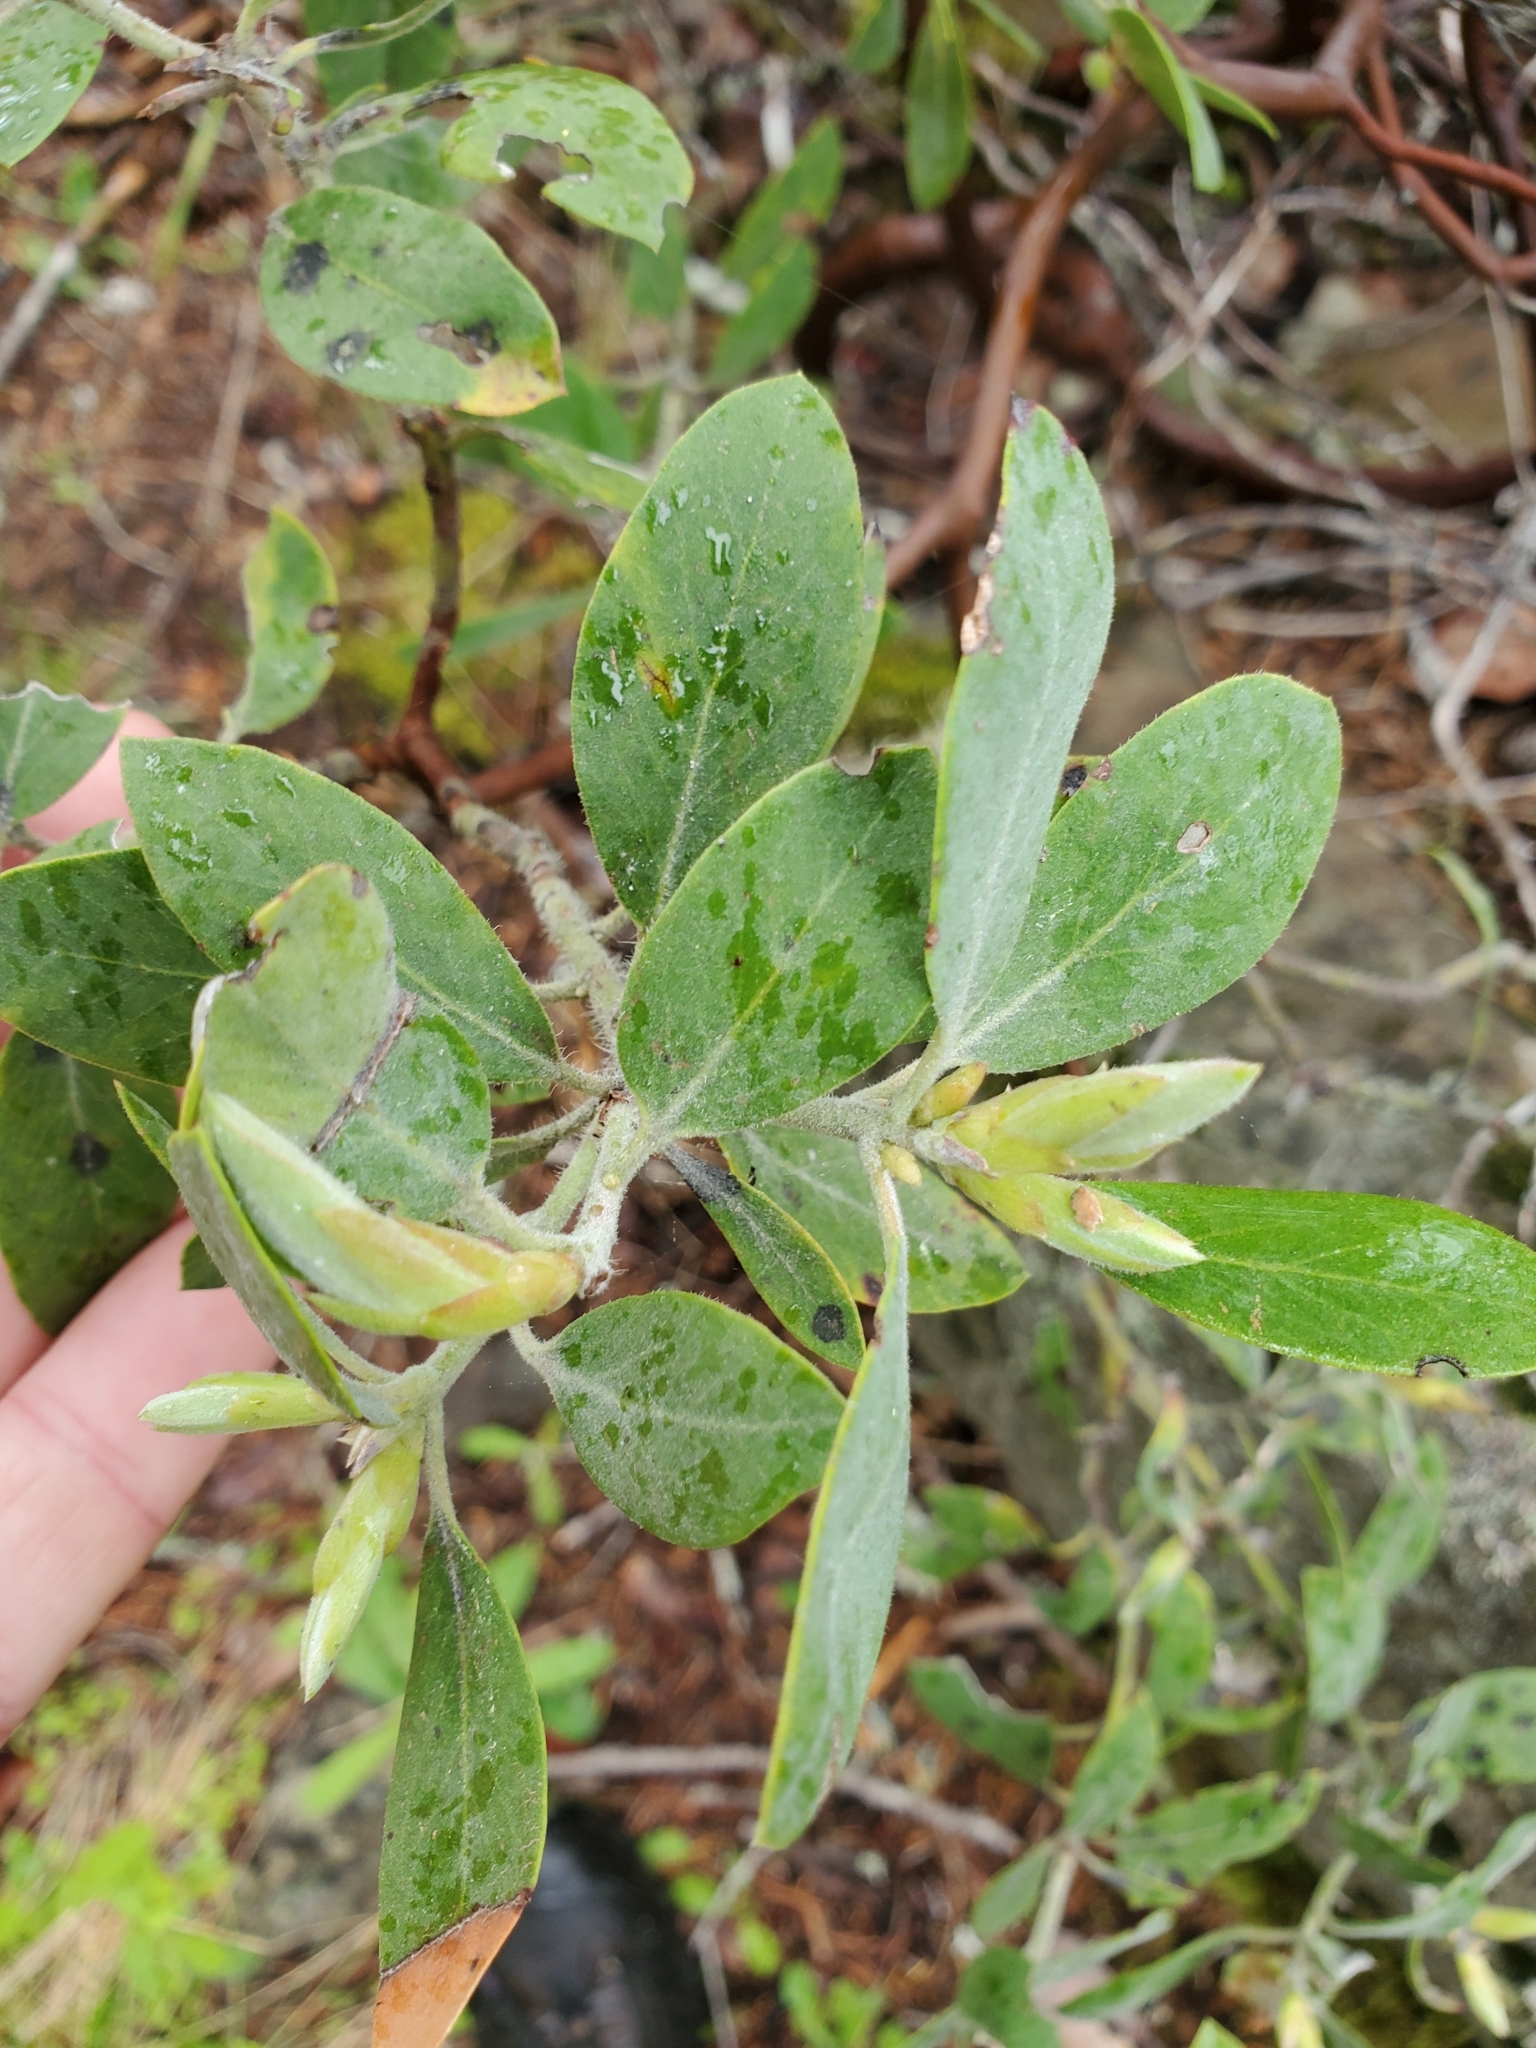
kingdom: Plantae
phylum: Tracheophyta
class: Magnoliopsida
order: Ericales
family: Ericaceae
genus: Arctostaphylos
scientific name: Arctostaphylos columbiana
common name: Bristly bearberry
